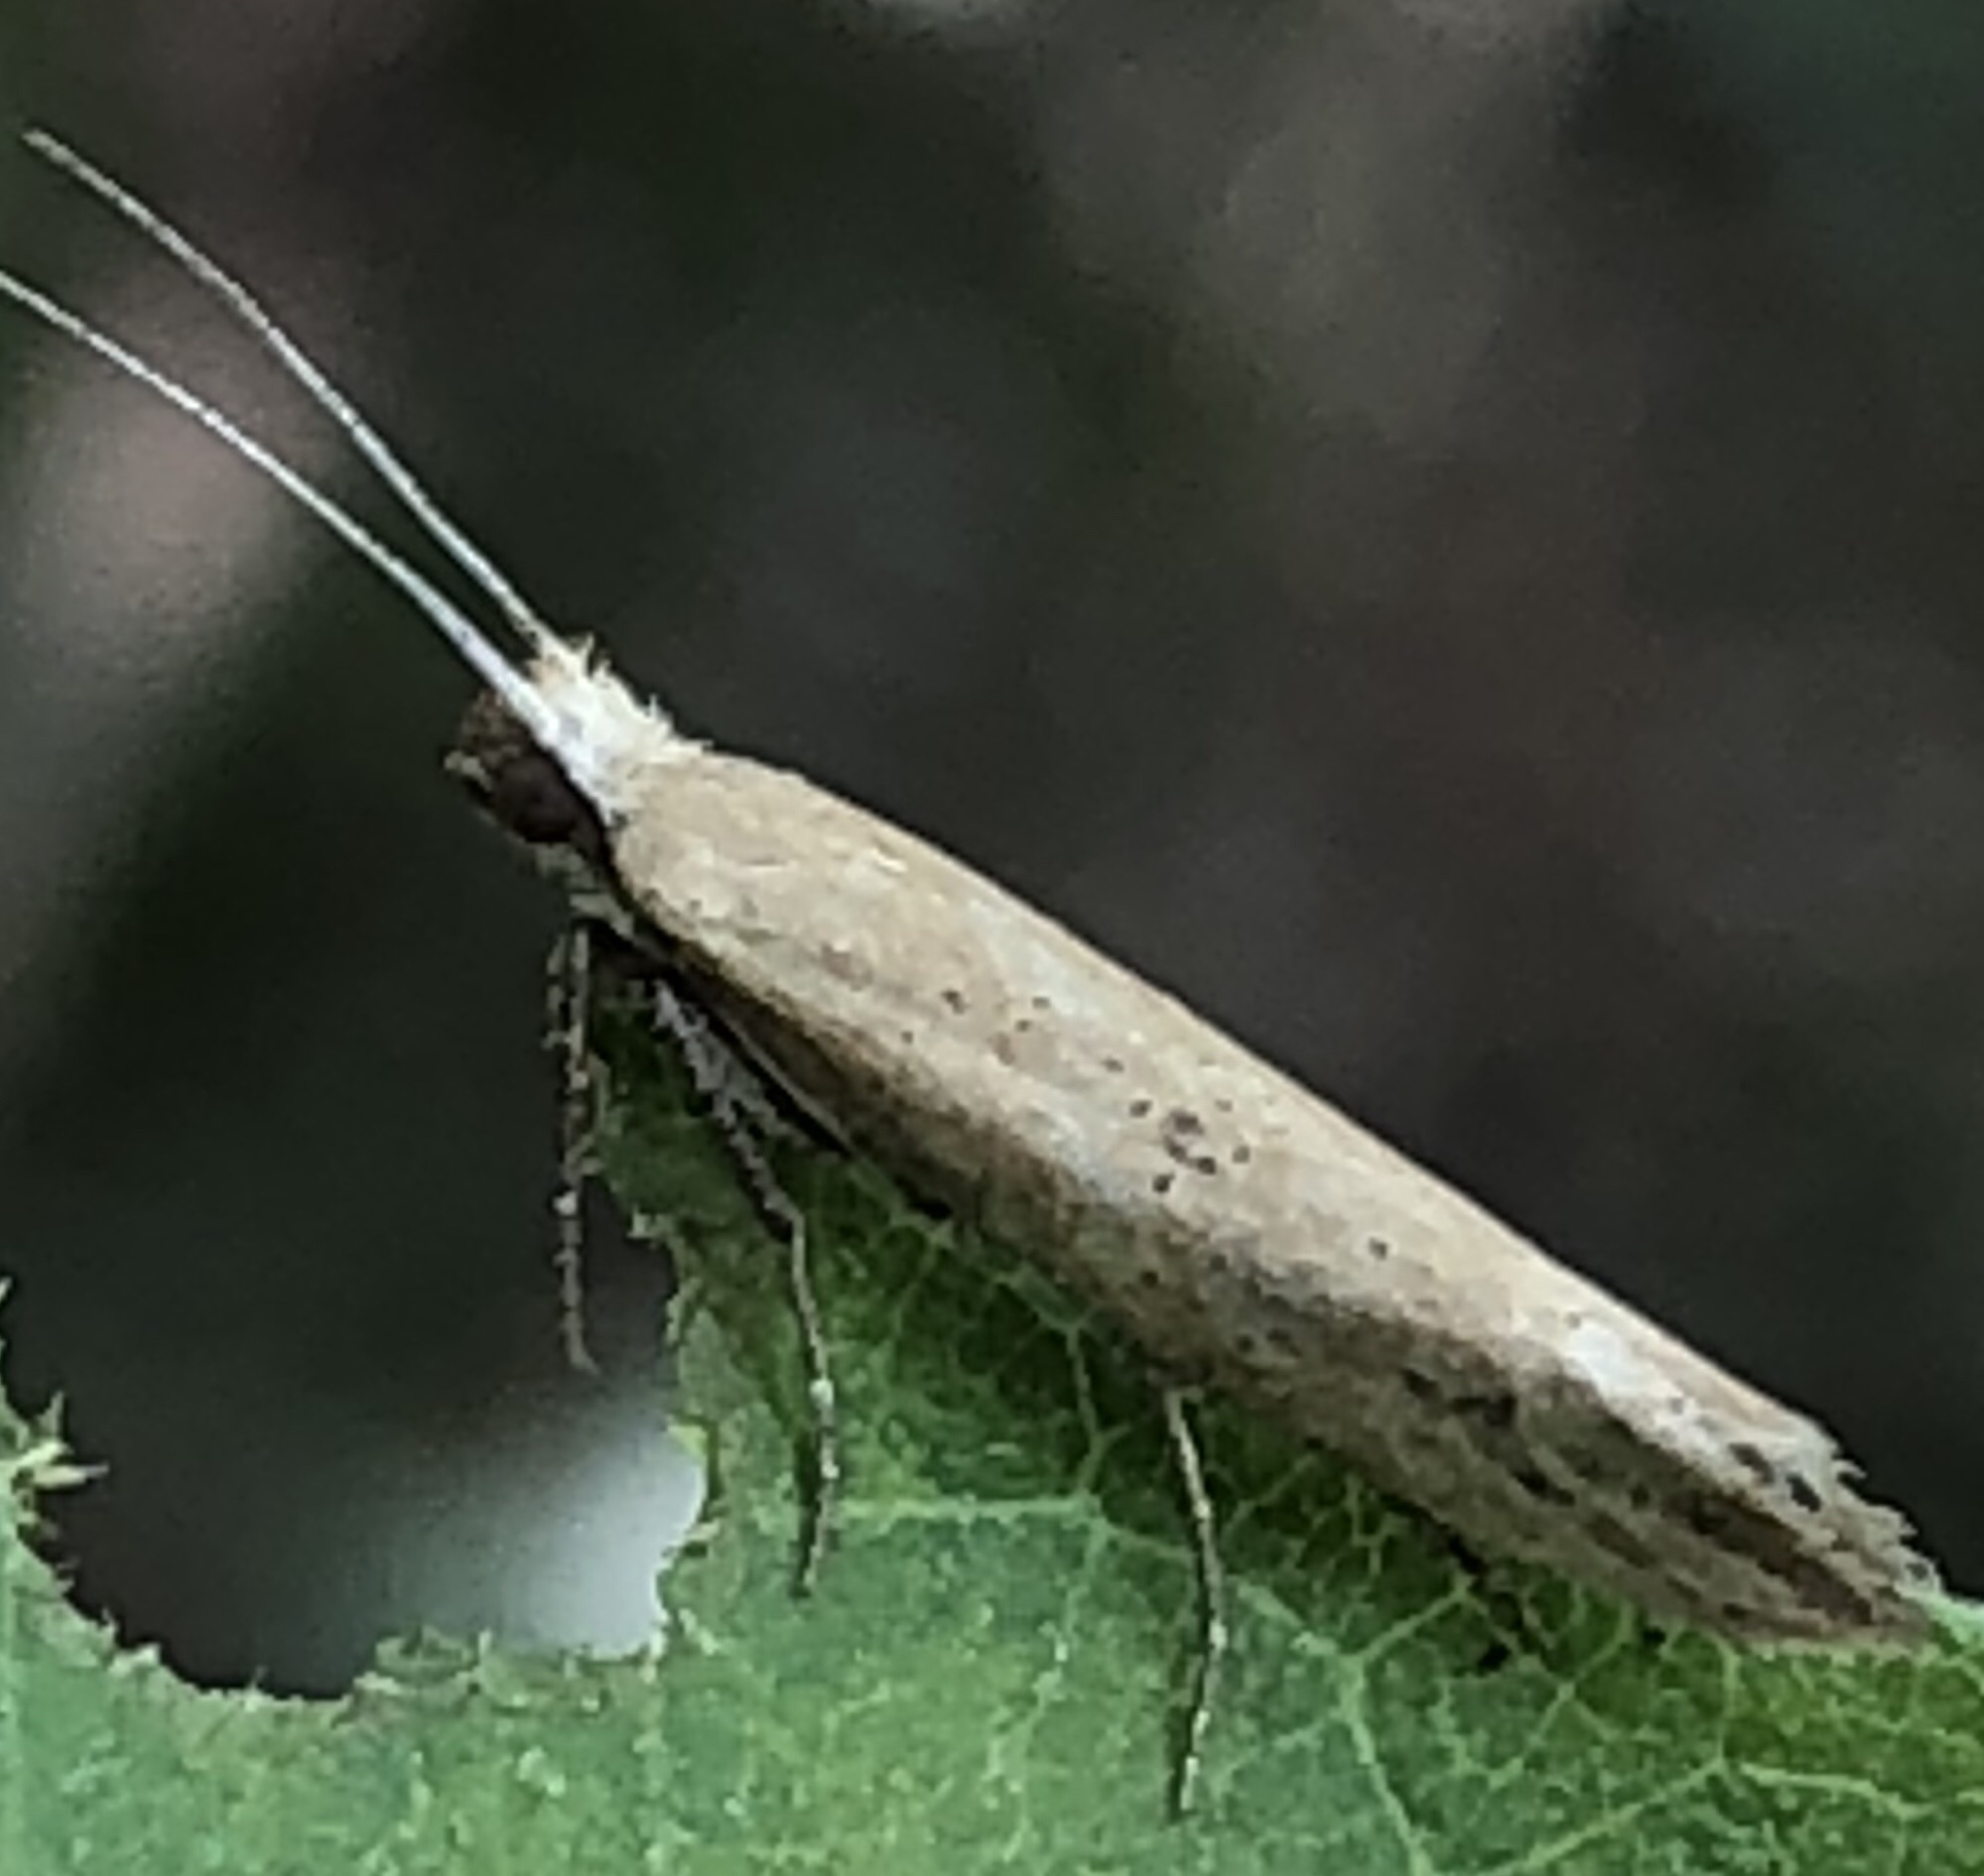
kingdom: Animalia
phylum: Arthropoda
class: Insecta
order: Lepidoptera
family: Ypsolophidae
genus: Ypsolopha
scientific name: Ypsolopha unicipunctella
